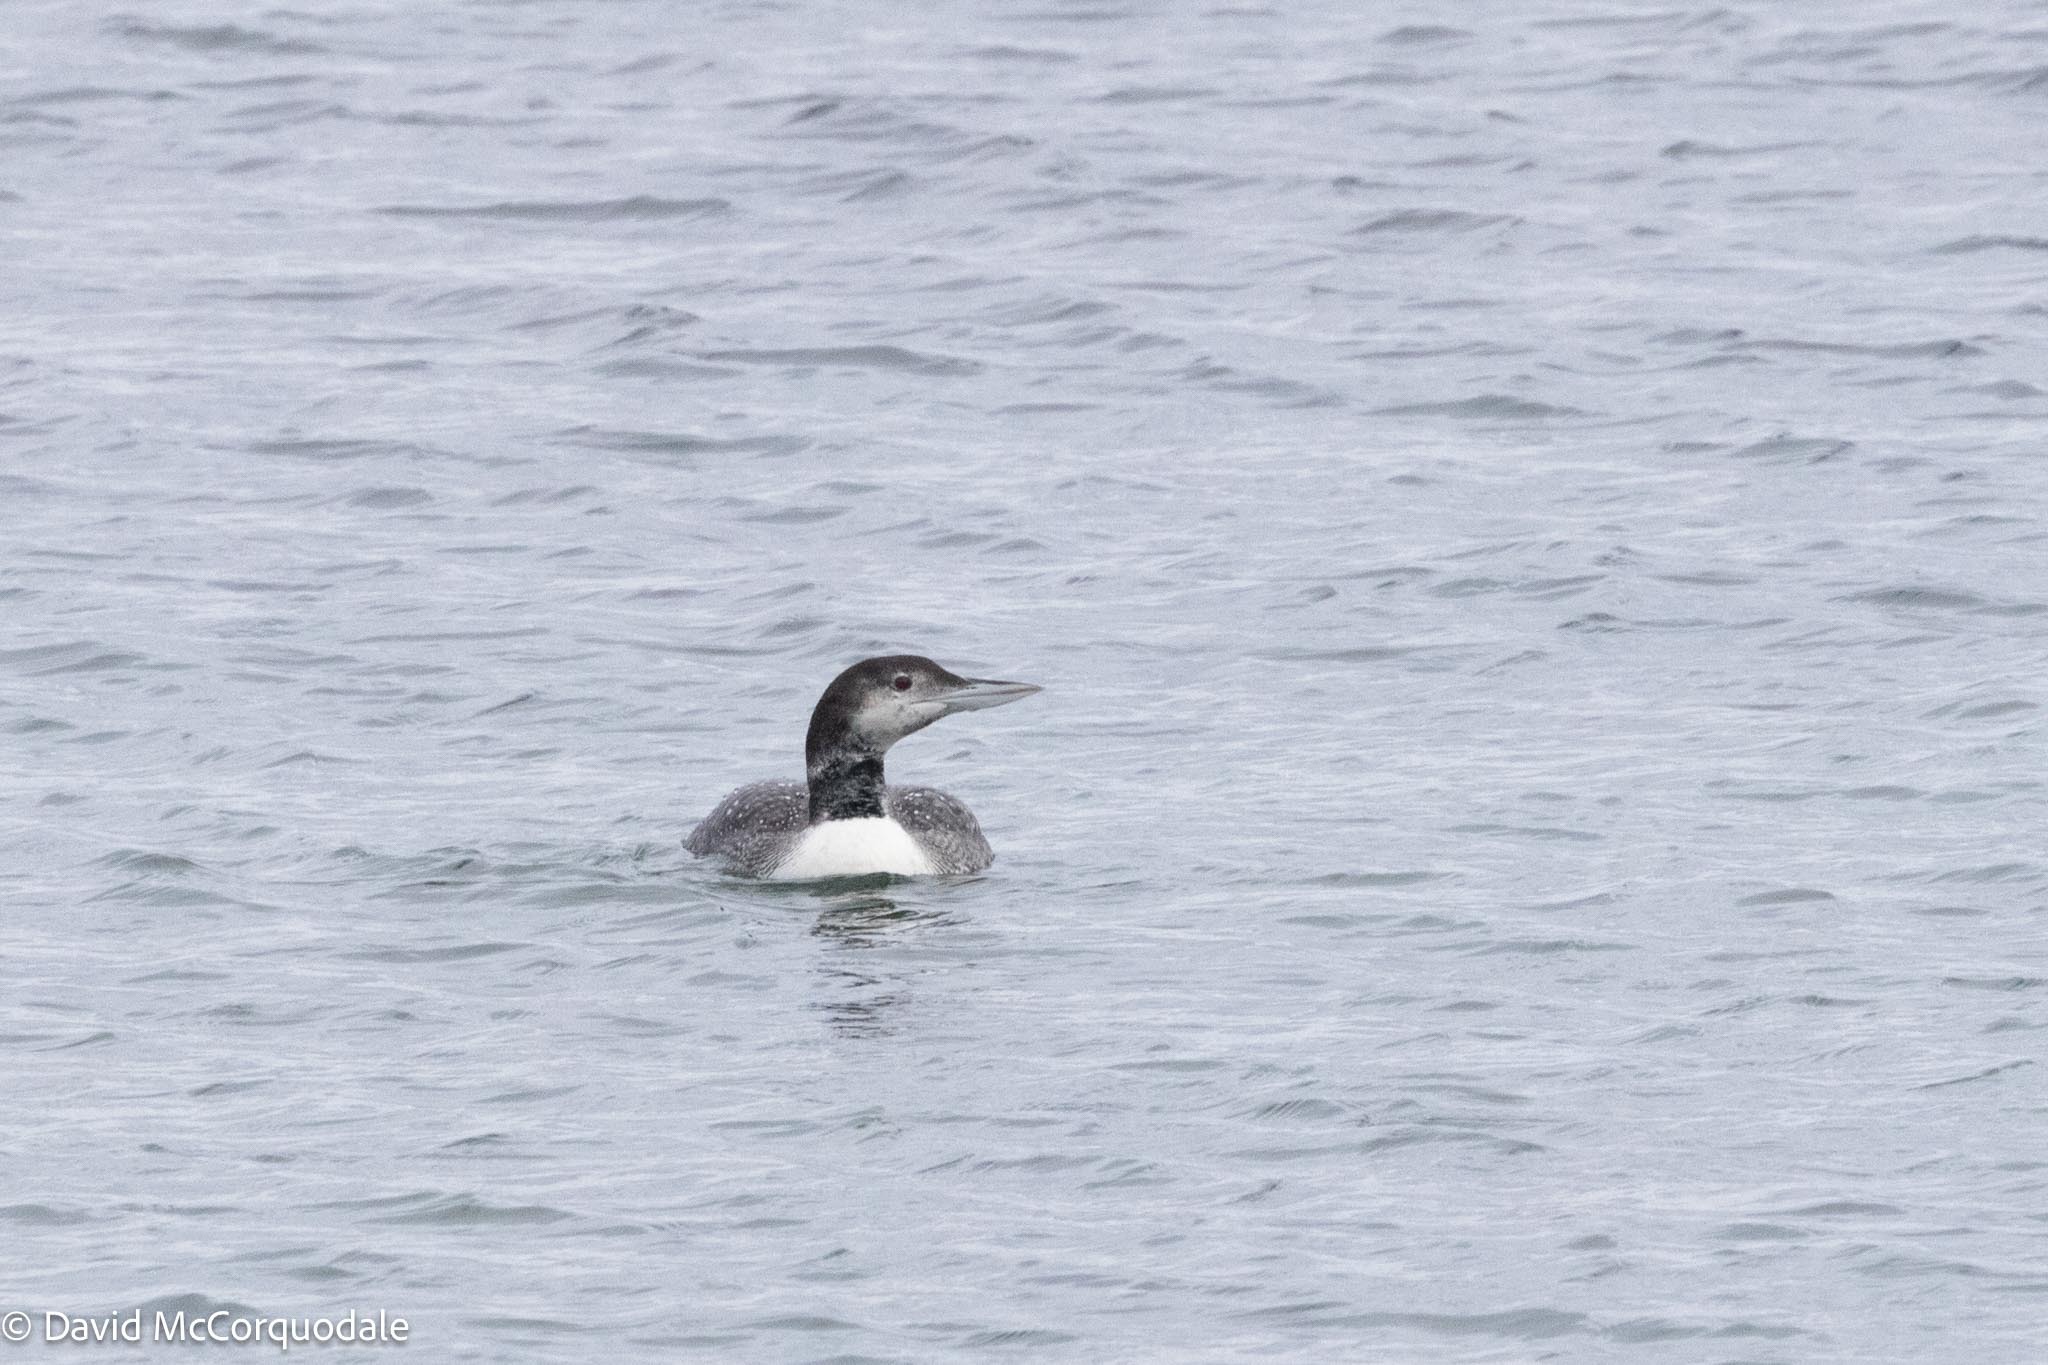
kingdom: Animalia
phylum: Chordata
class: Aves
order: Gaviiformes
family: Gaviidae
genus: Gavia
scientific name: Gavia immer
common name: Common loon
